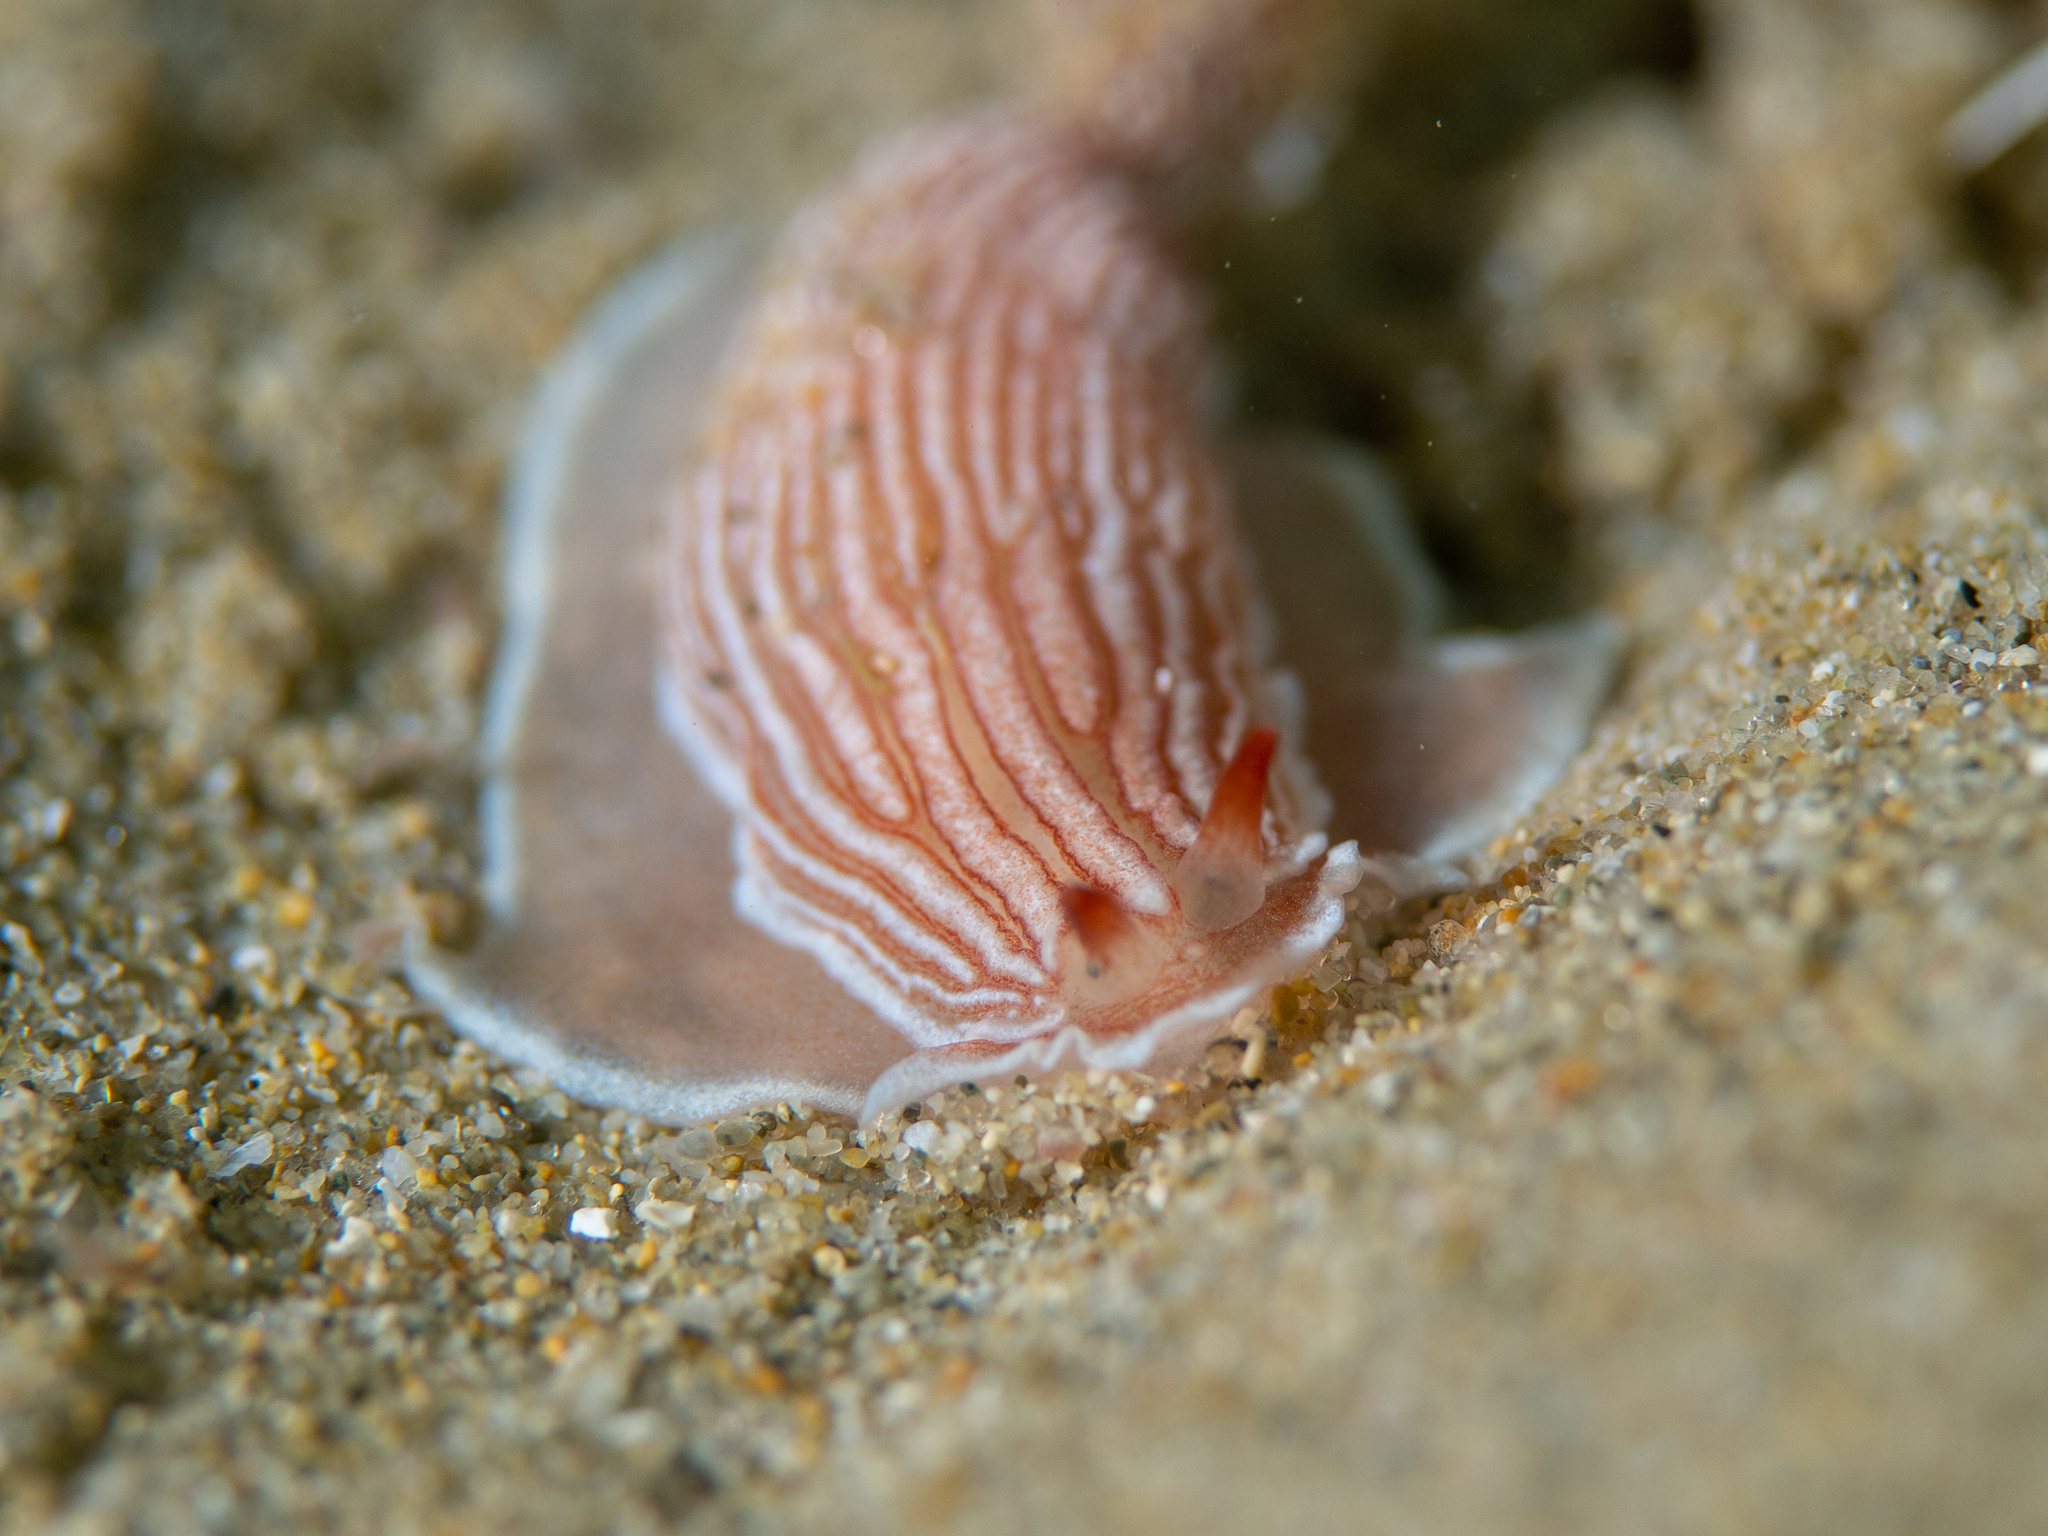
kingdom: Animalia
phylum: Mollusca
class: Gastropoda
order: Nudibranchia
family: Arminidae
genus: Dermatobranchus
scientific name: Dermatobranchus rubidus
